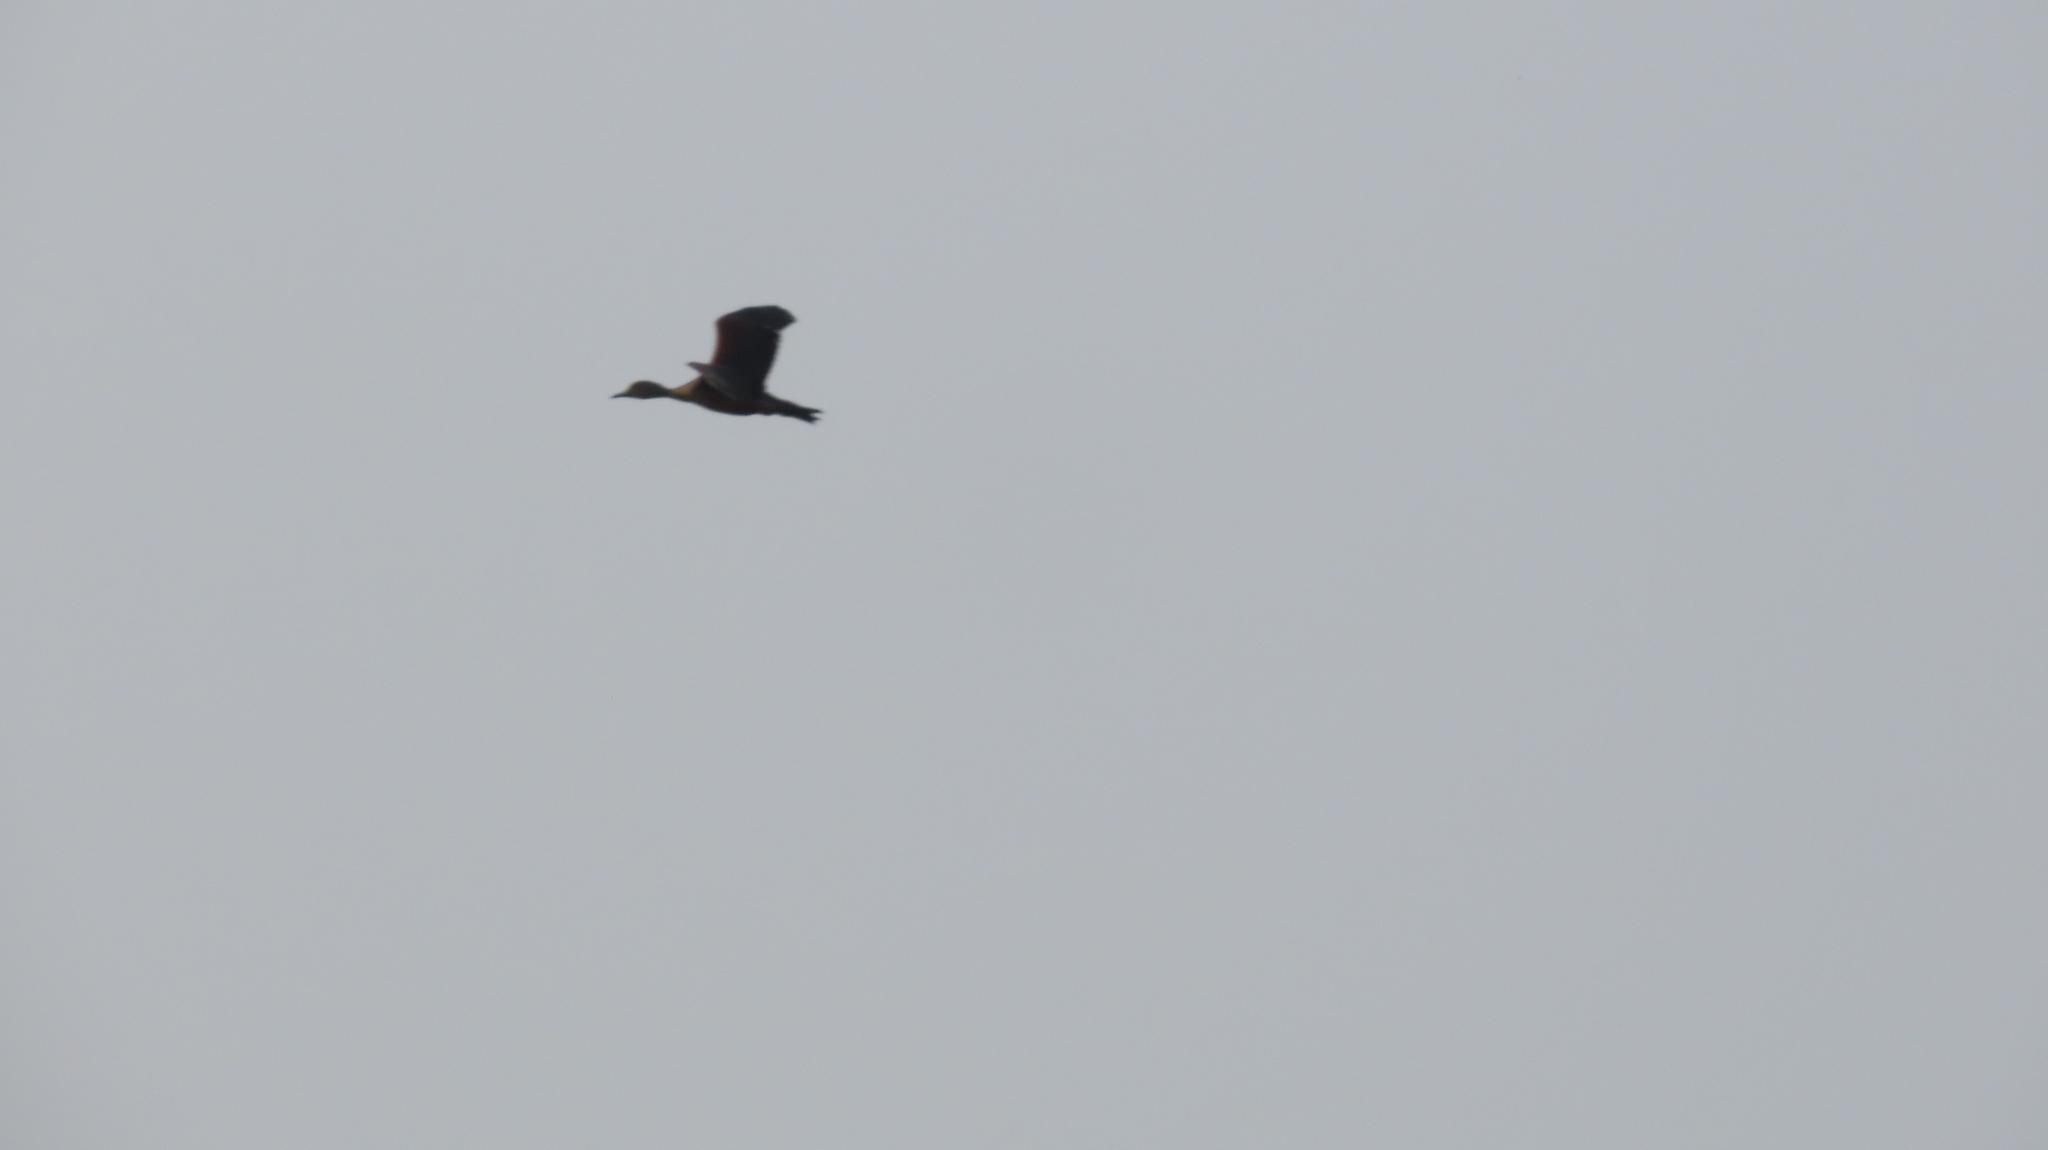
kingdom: Animalia
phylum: Chordata
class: Aves
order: Anseriformes
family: Anatidae
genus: Dendrocygna
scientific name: Dendrocygna javanica
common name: Lesser whistling-duck
